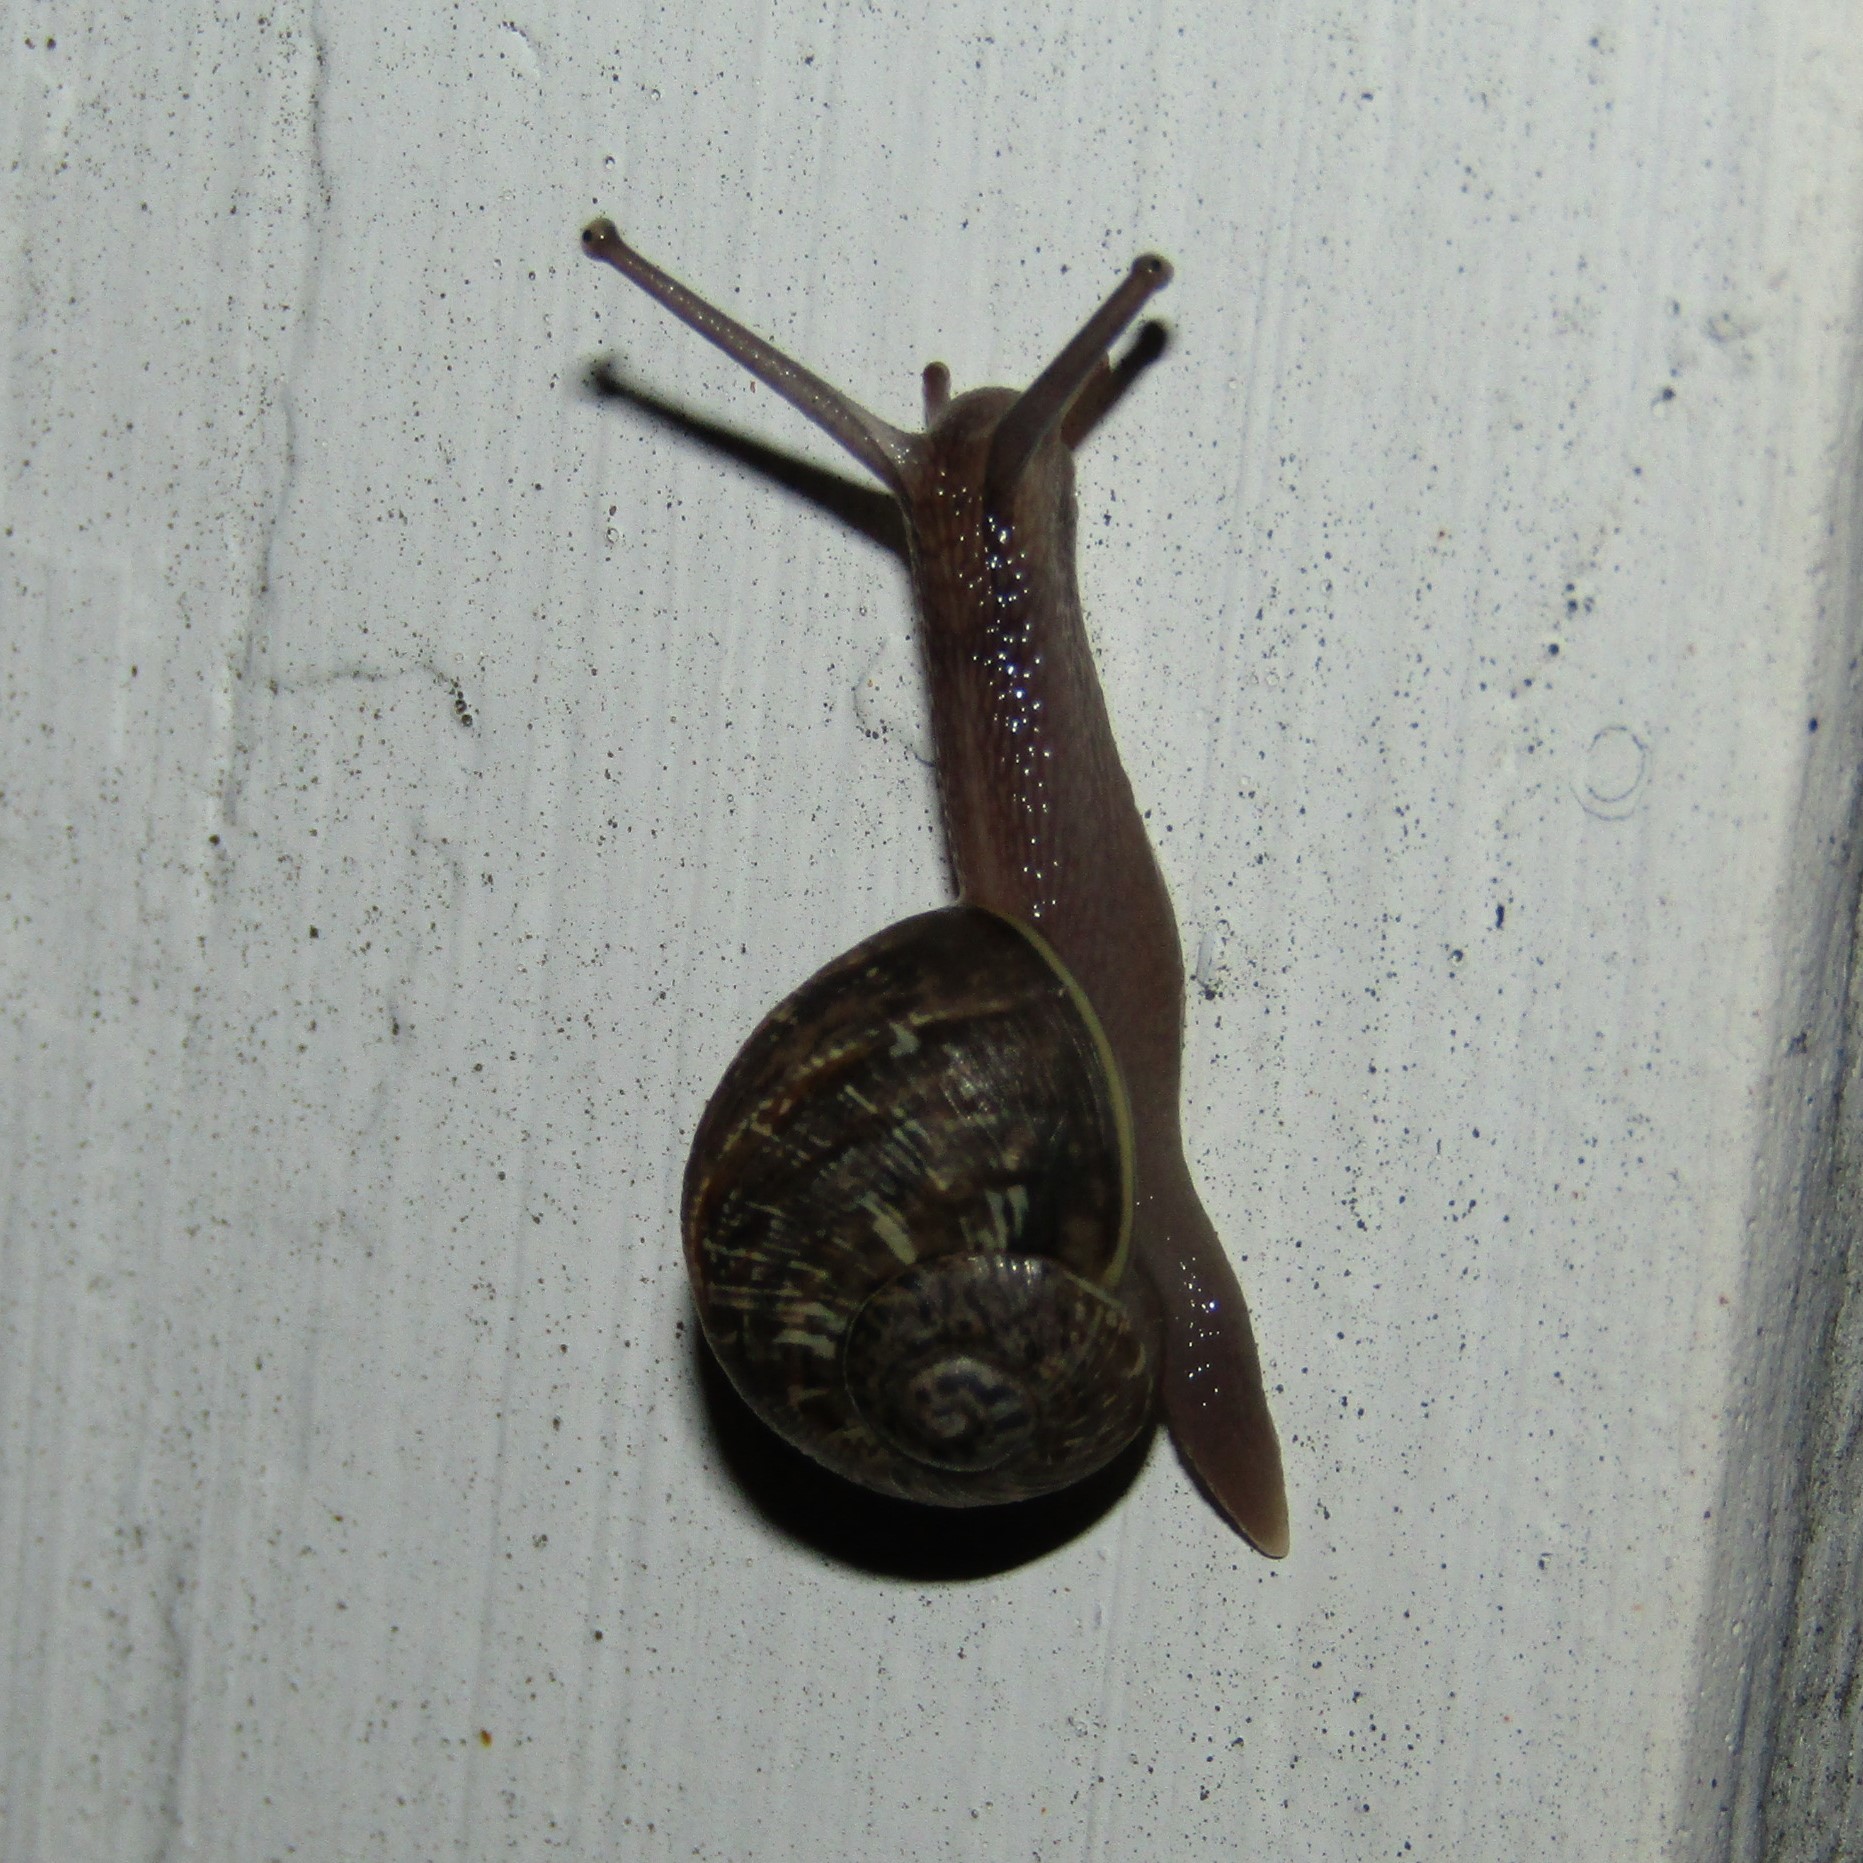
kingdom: Animalia
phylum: Mollusca
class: Gastropoda
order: Stylommatophora
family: Helicidae
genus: Cornu
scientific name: Cornu aspersum
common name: Brown garden snail
